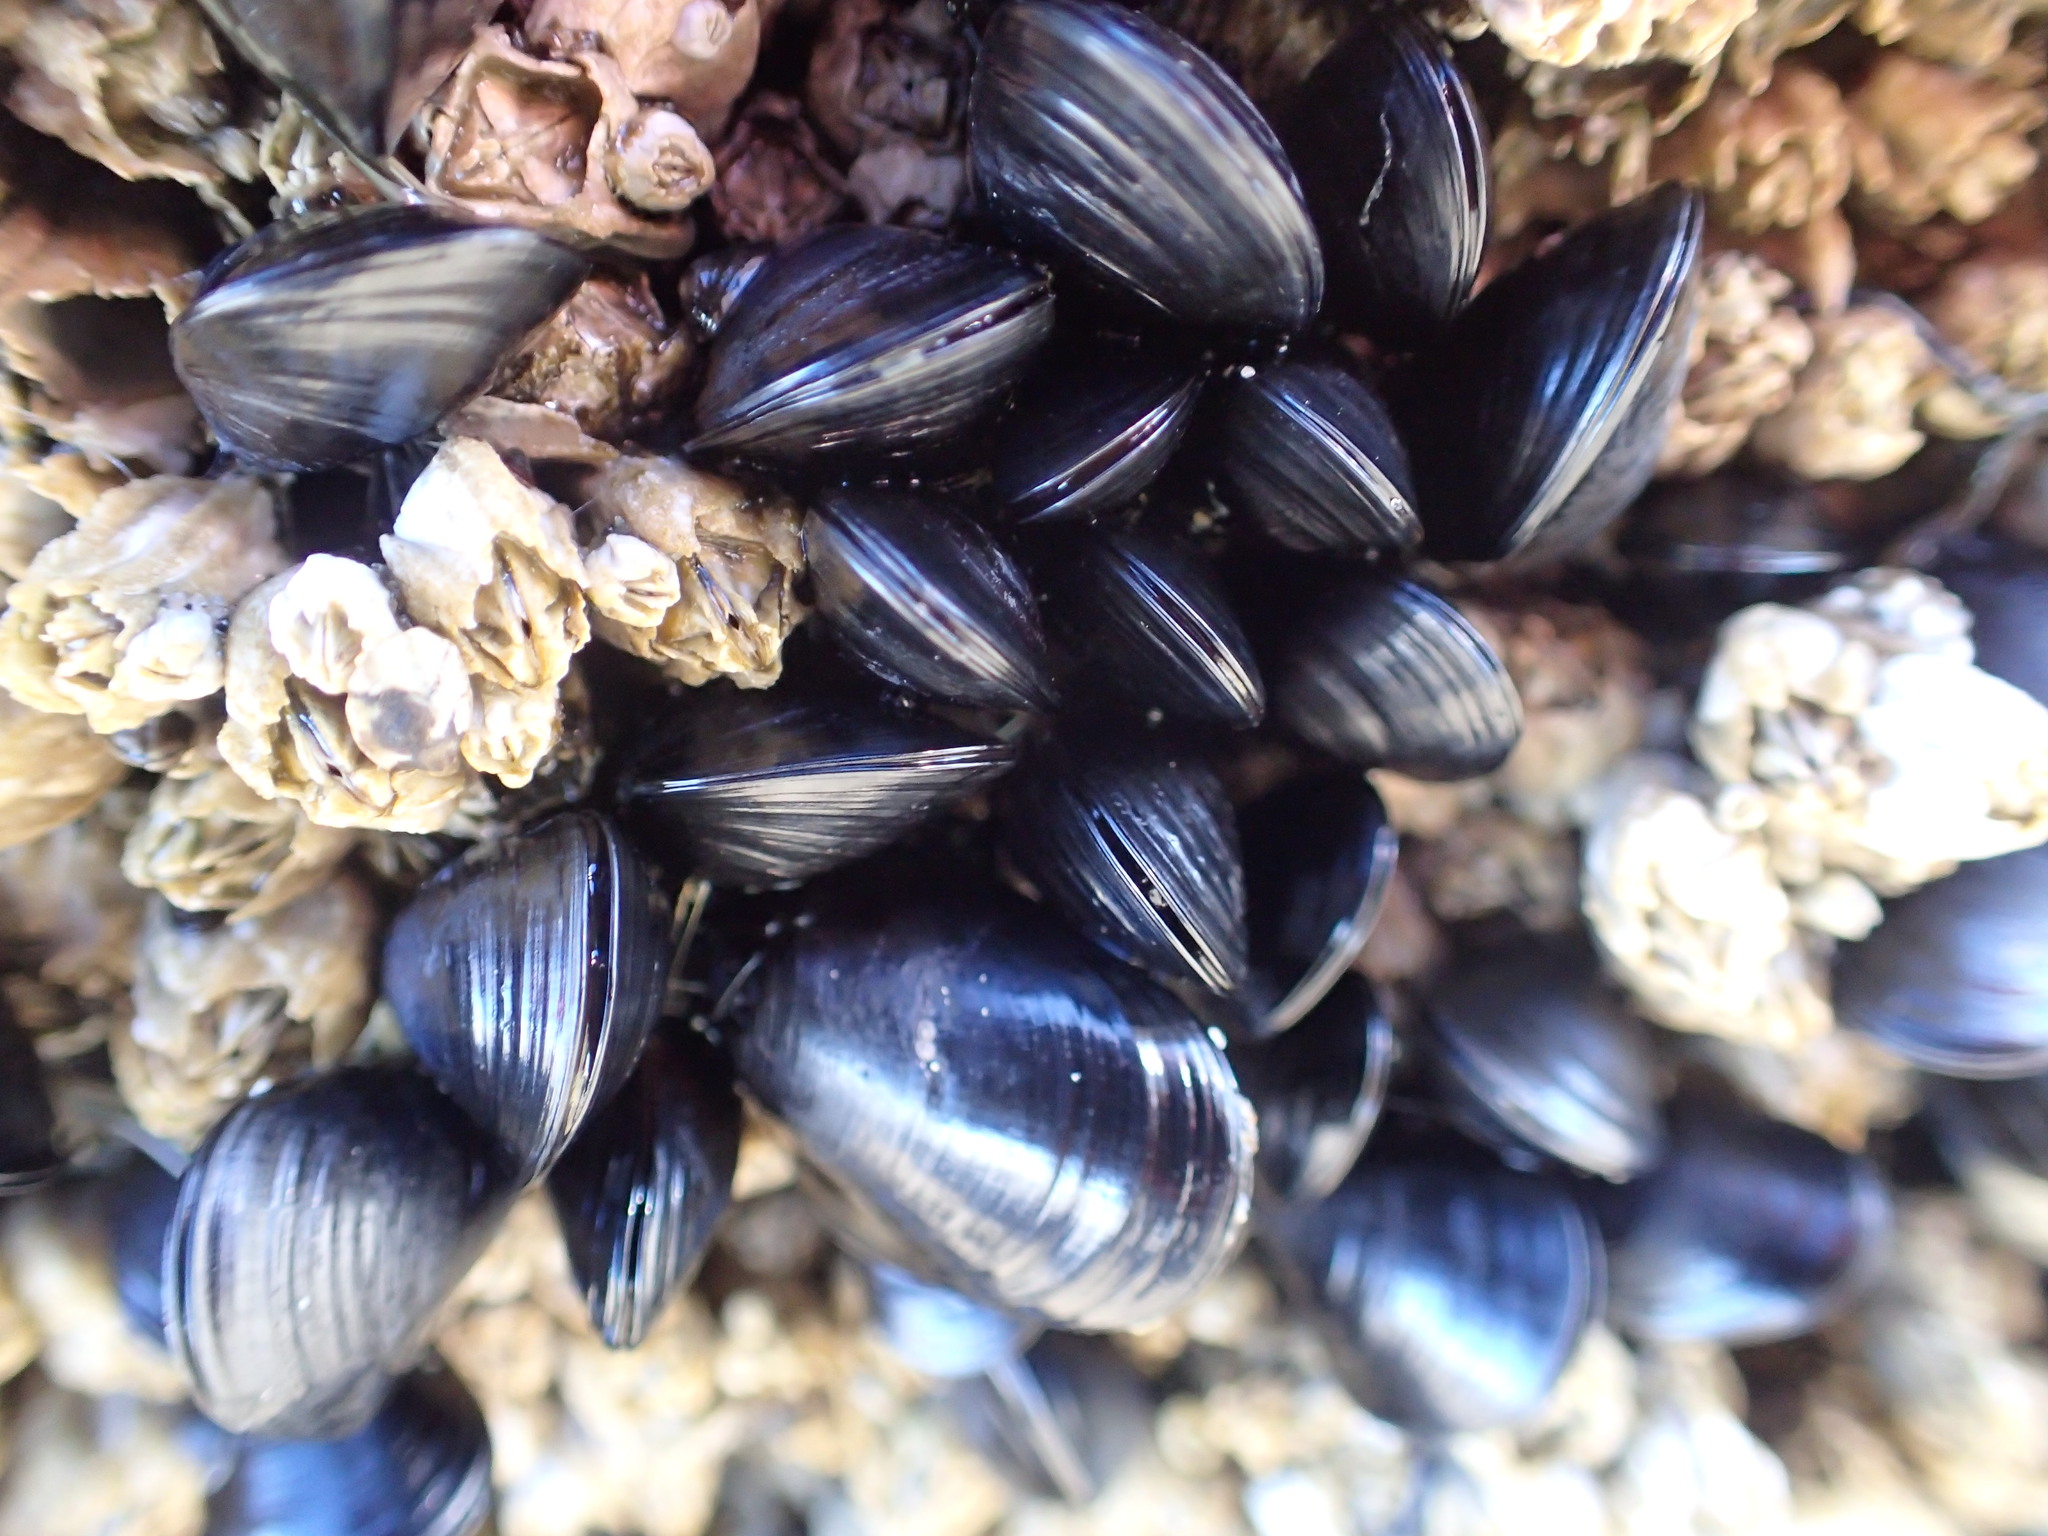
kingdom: Animalia
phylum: Mollusca
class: Bivalvia
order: Mytilida
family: Mytilidae
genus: Mytilus
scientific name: Mytilus trossulus
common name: Northern blue mussel
